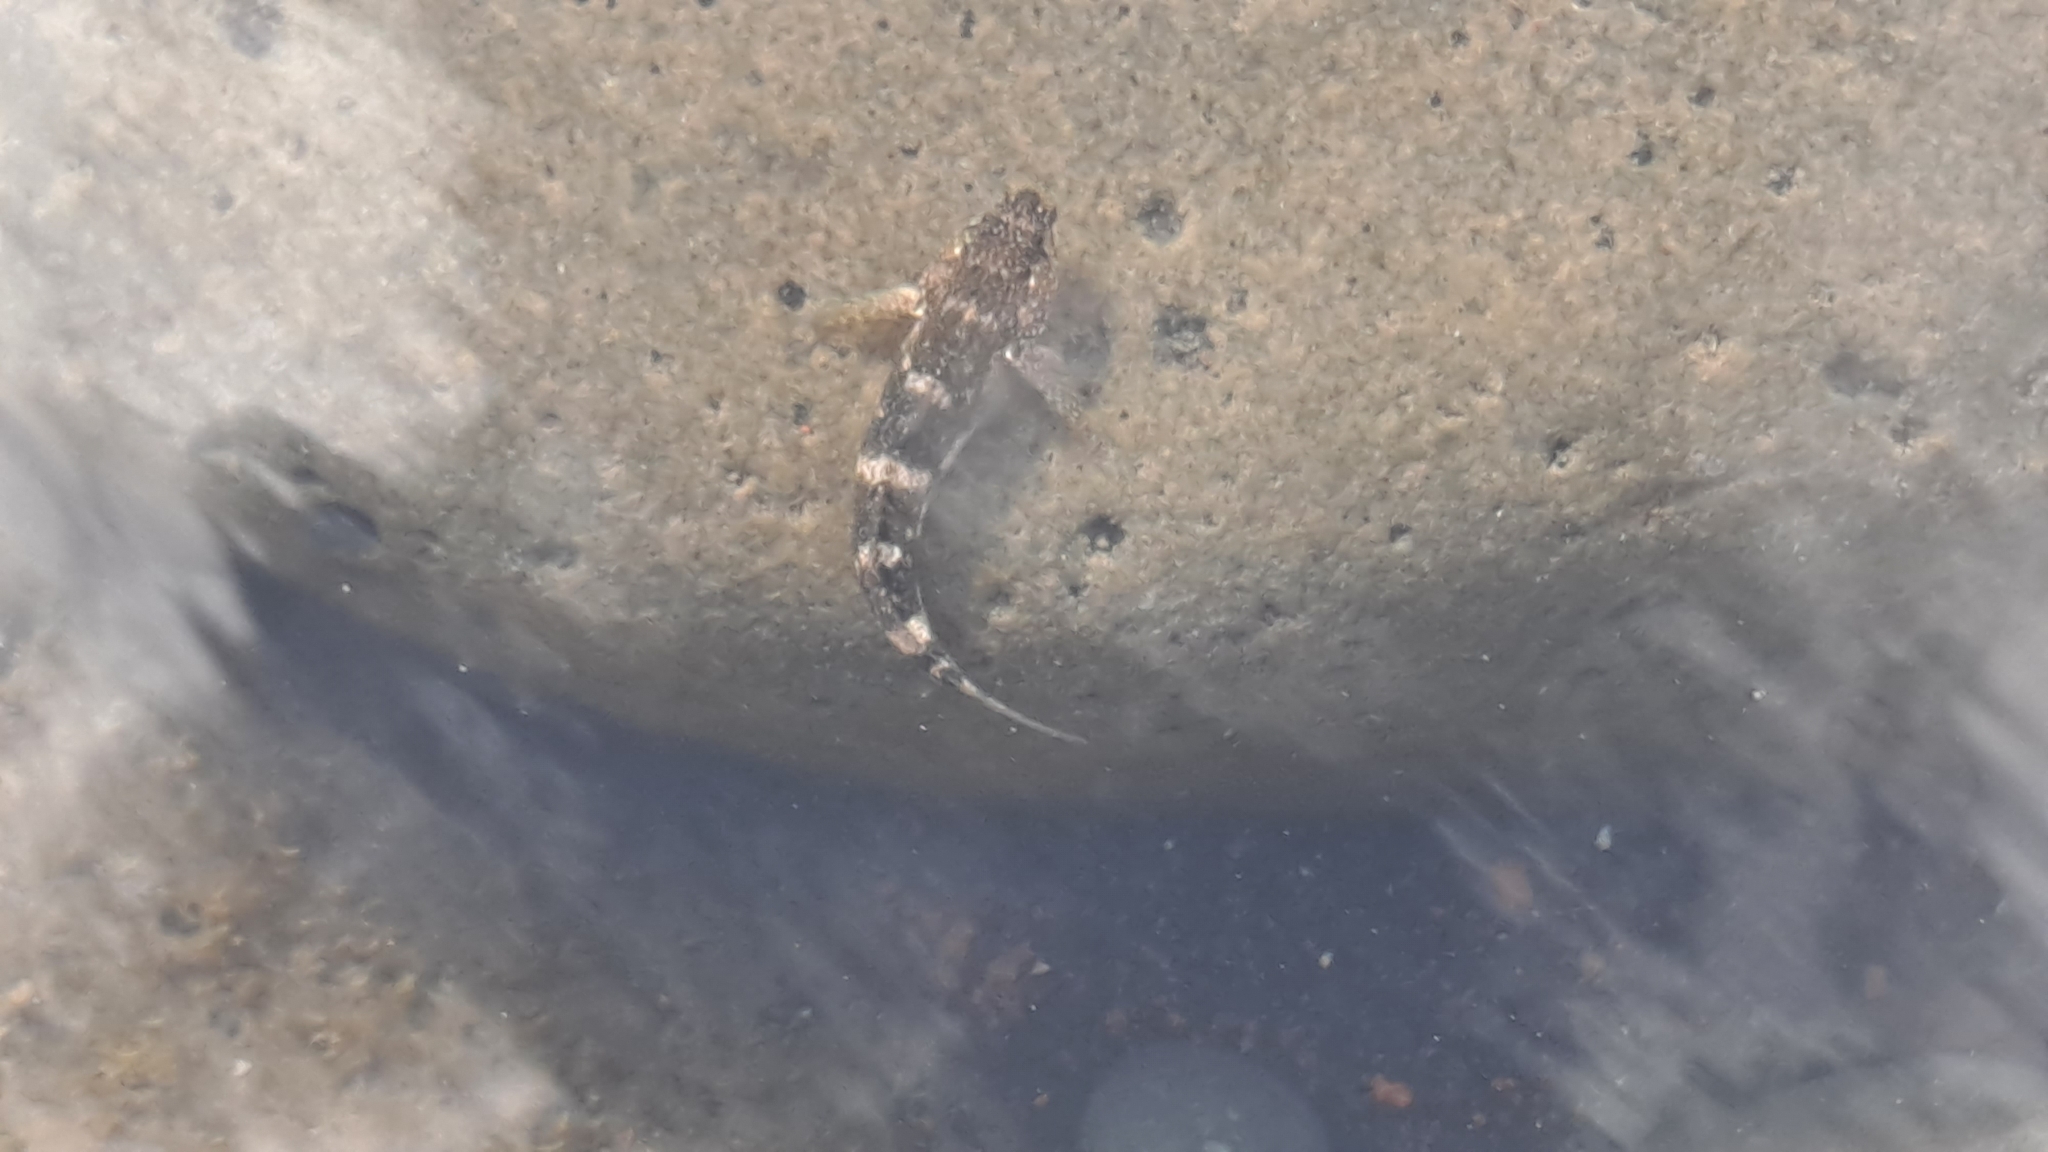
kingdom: Animalia
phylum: Chordata
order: Perciformes
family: Gobiidae
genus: Mauligobius
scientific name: Mauligobius maderensis
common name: Rock goby
